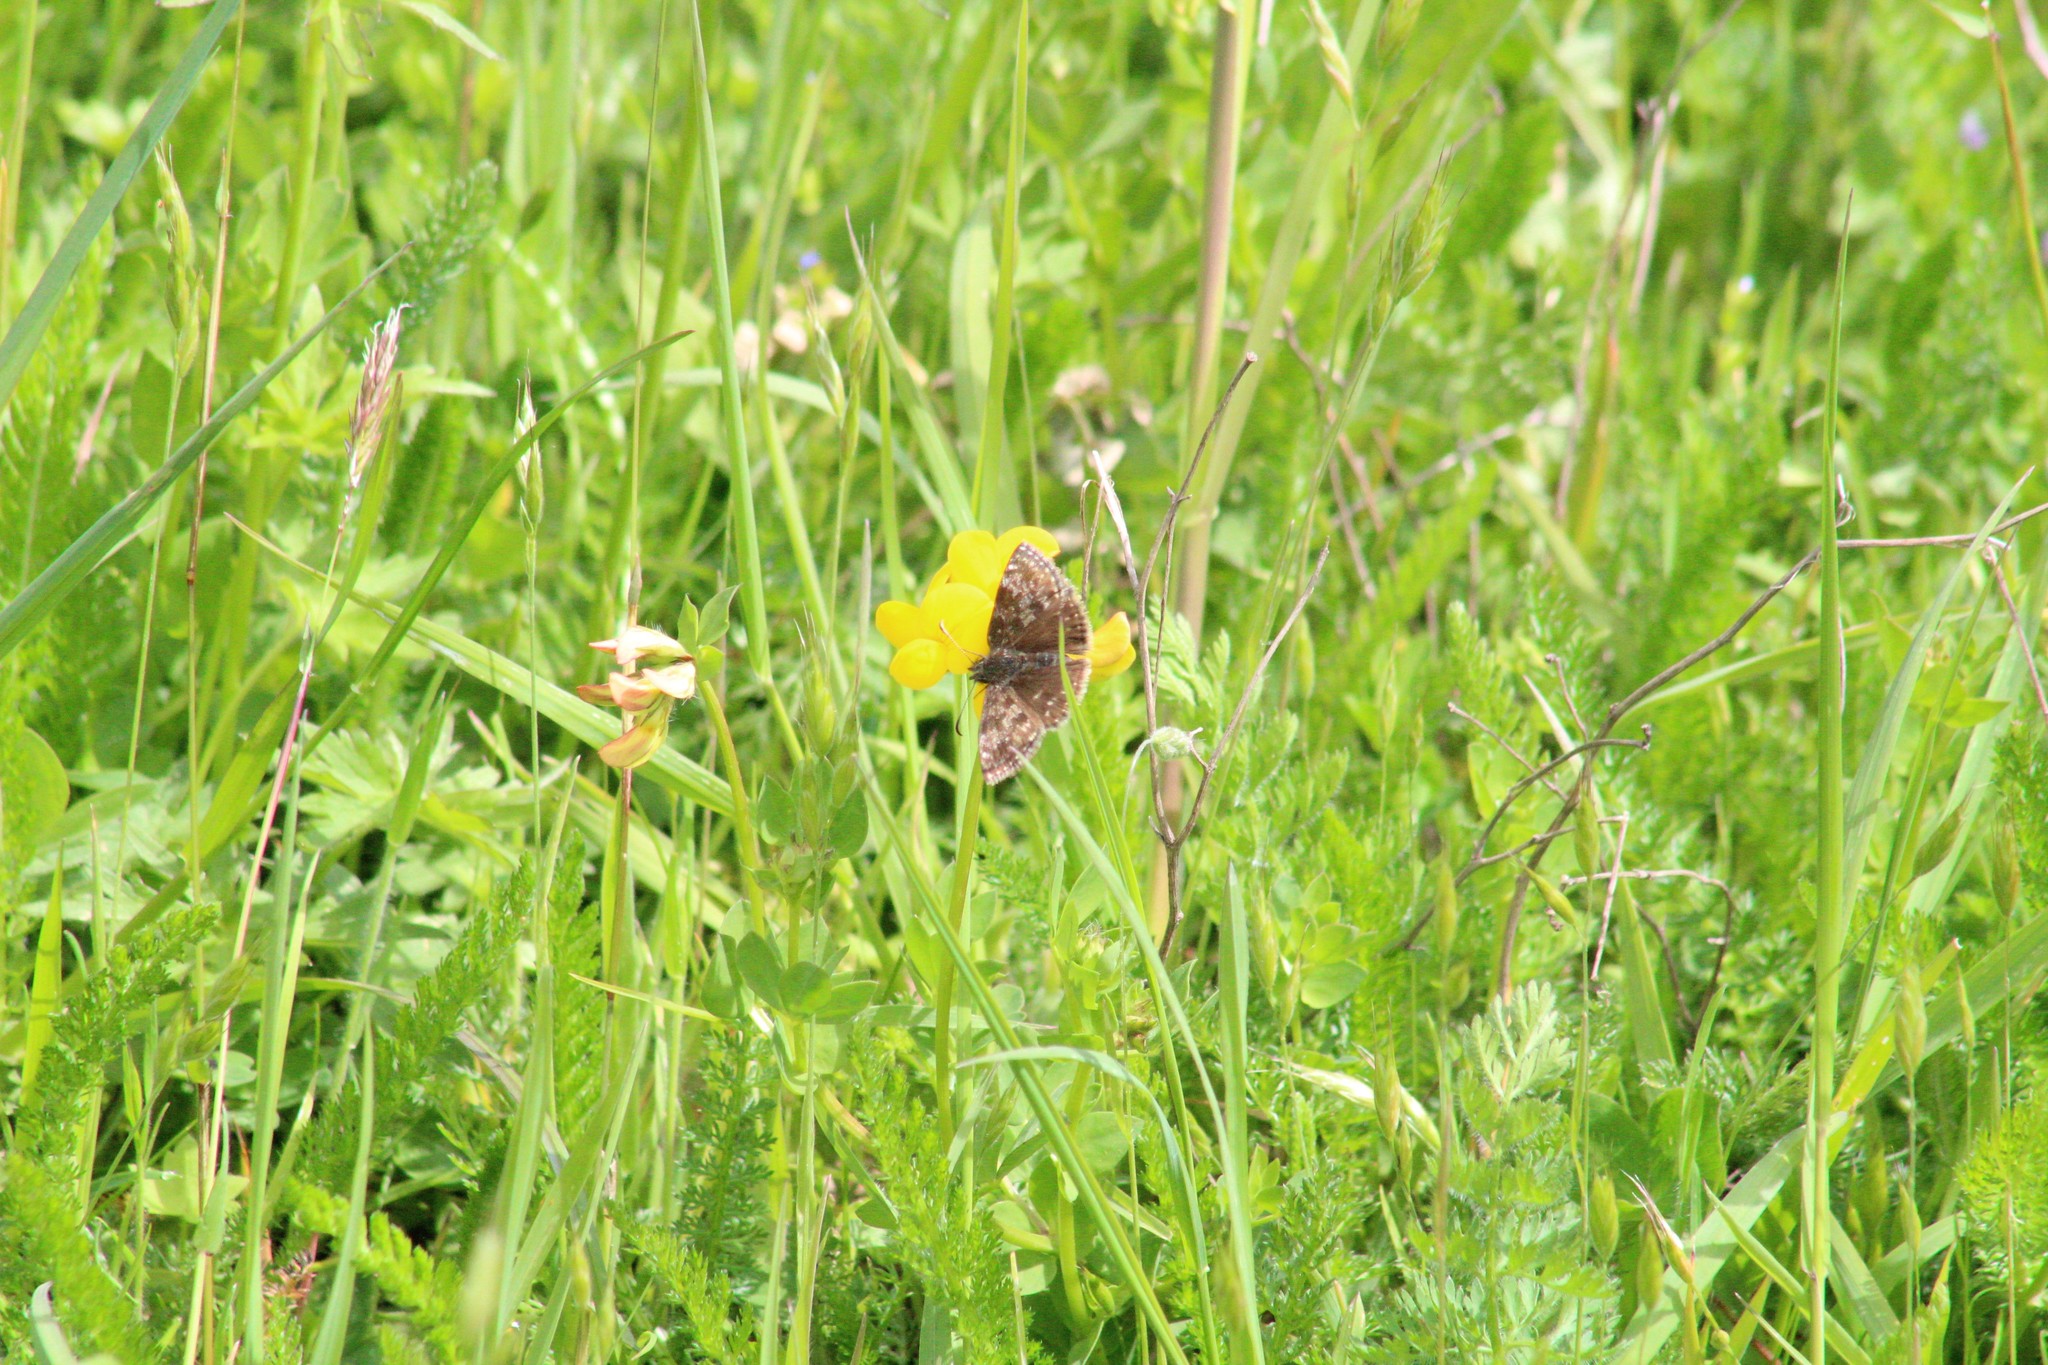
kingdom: Animalia
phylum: Arthropoda
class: Insecta
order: Lepidoptera
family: Hesperiidae
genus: Erynnis
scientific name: Erynnis tages
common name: Dingy skipper
